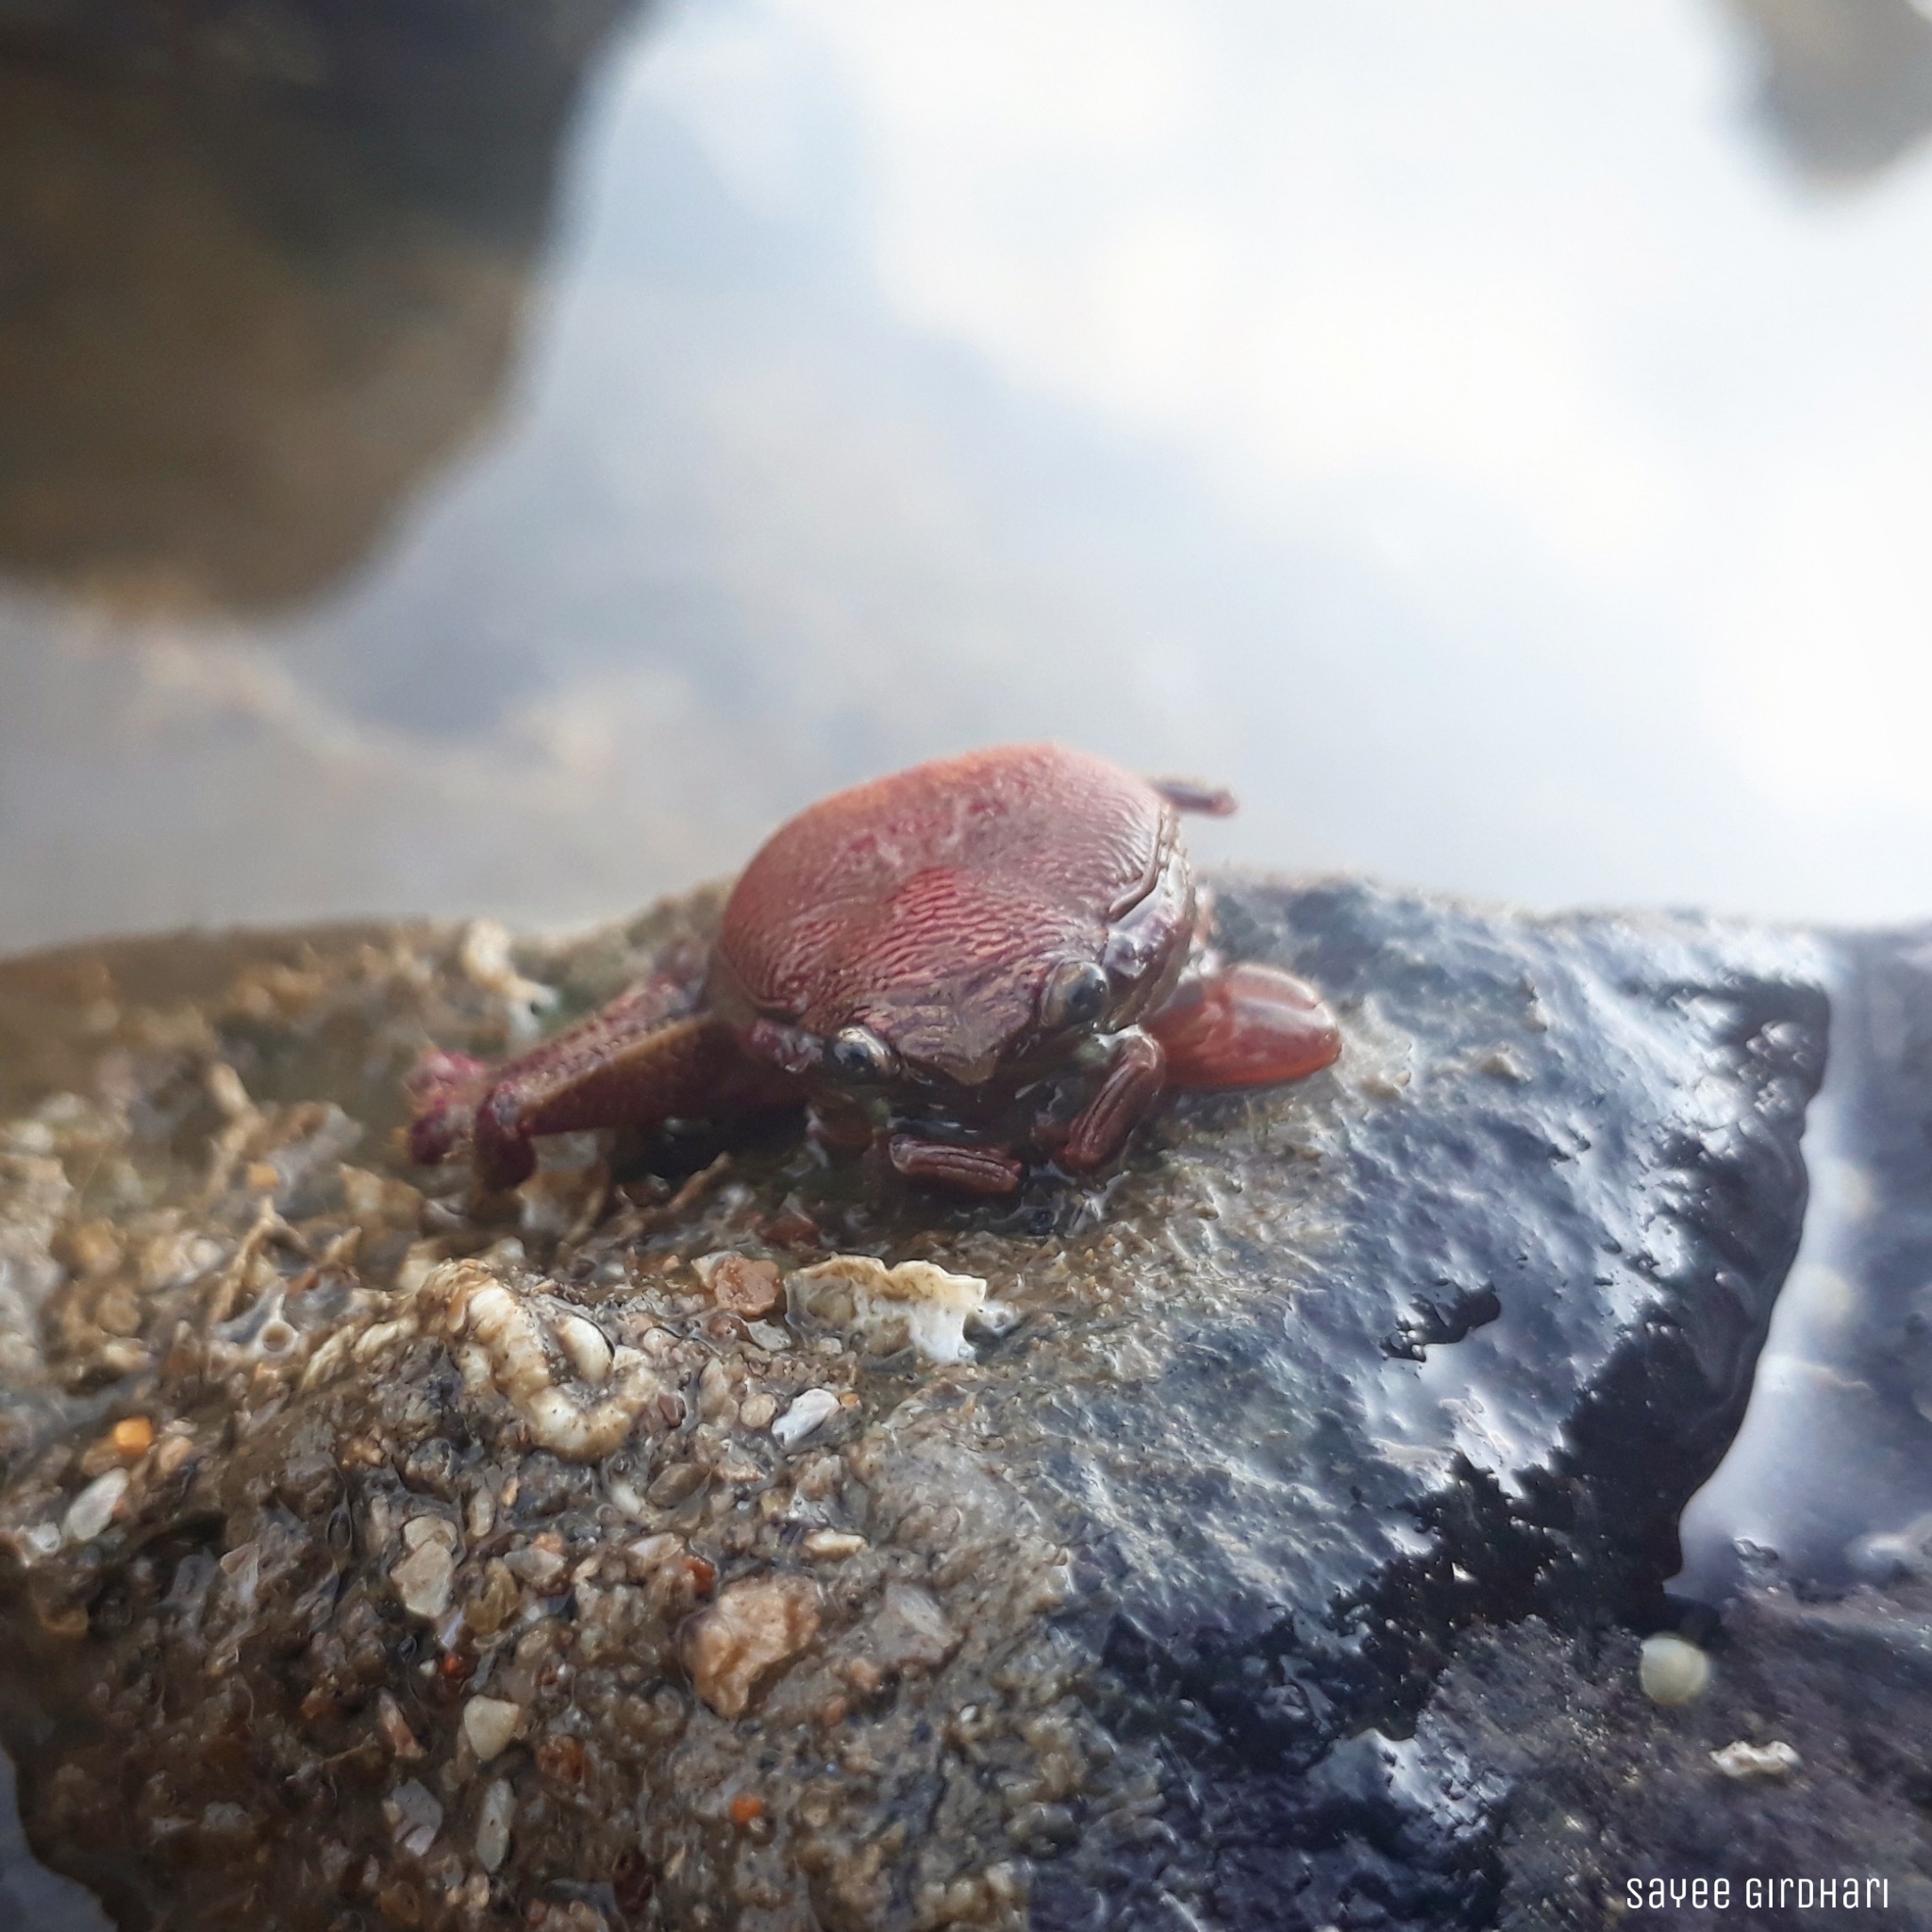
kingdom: Animalia
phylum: Arthropoda
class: Malacostraca
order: Decapoda
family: Porcellanidae
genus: Petrolisthes
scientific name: Petrolisthes boscii
